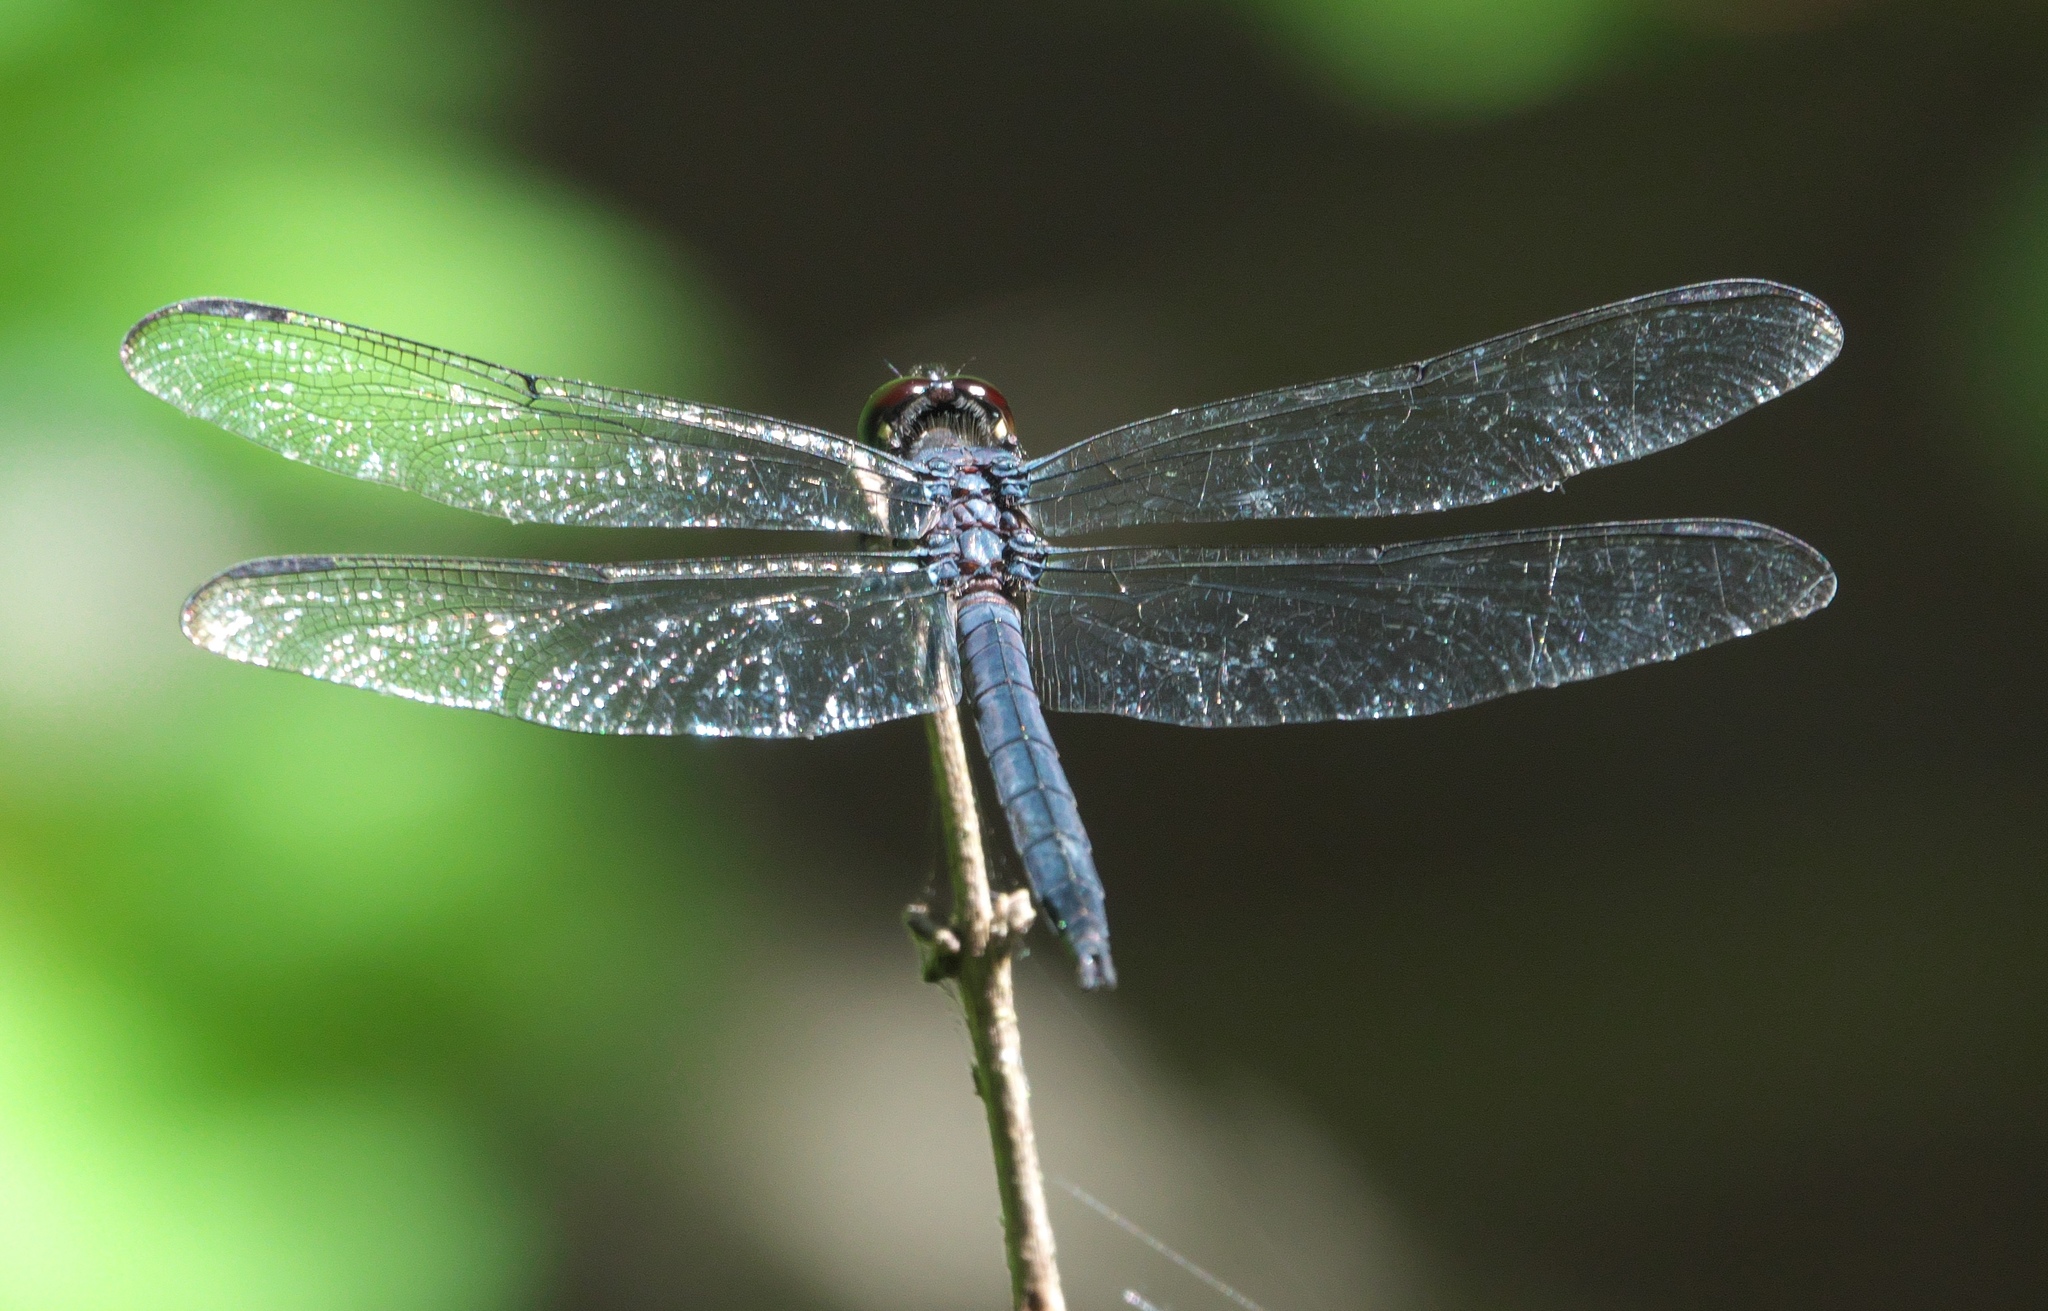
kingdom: Animalia
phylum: Arthropoda
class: Insecta
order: Odonata
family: Libellulidae
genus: Libellula
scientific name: Libellula incesta
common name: Slaty skimmer
